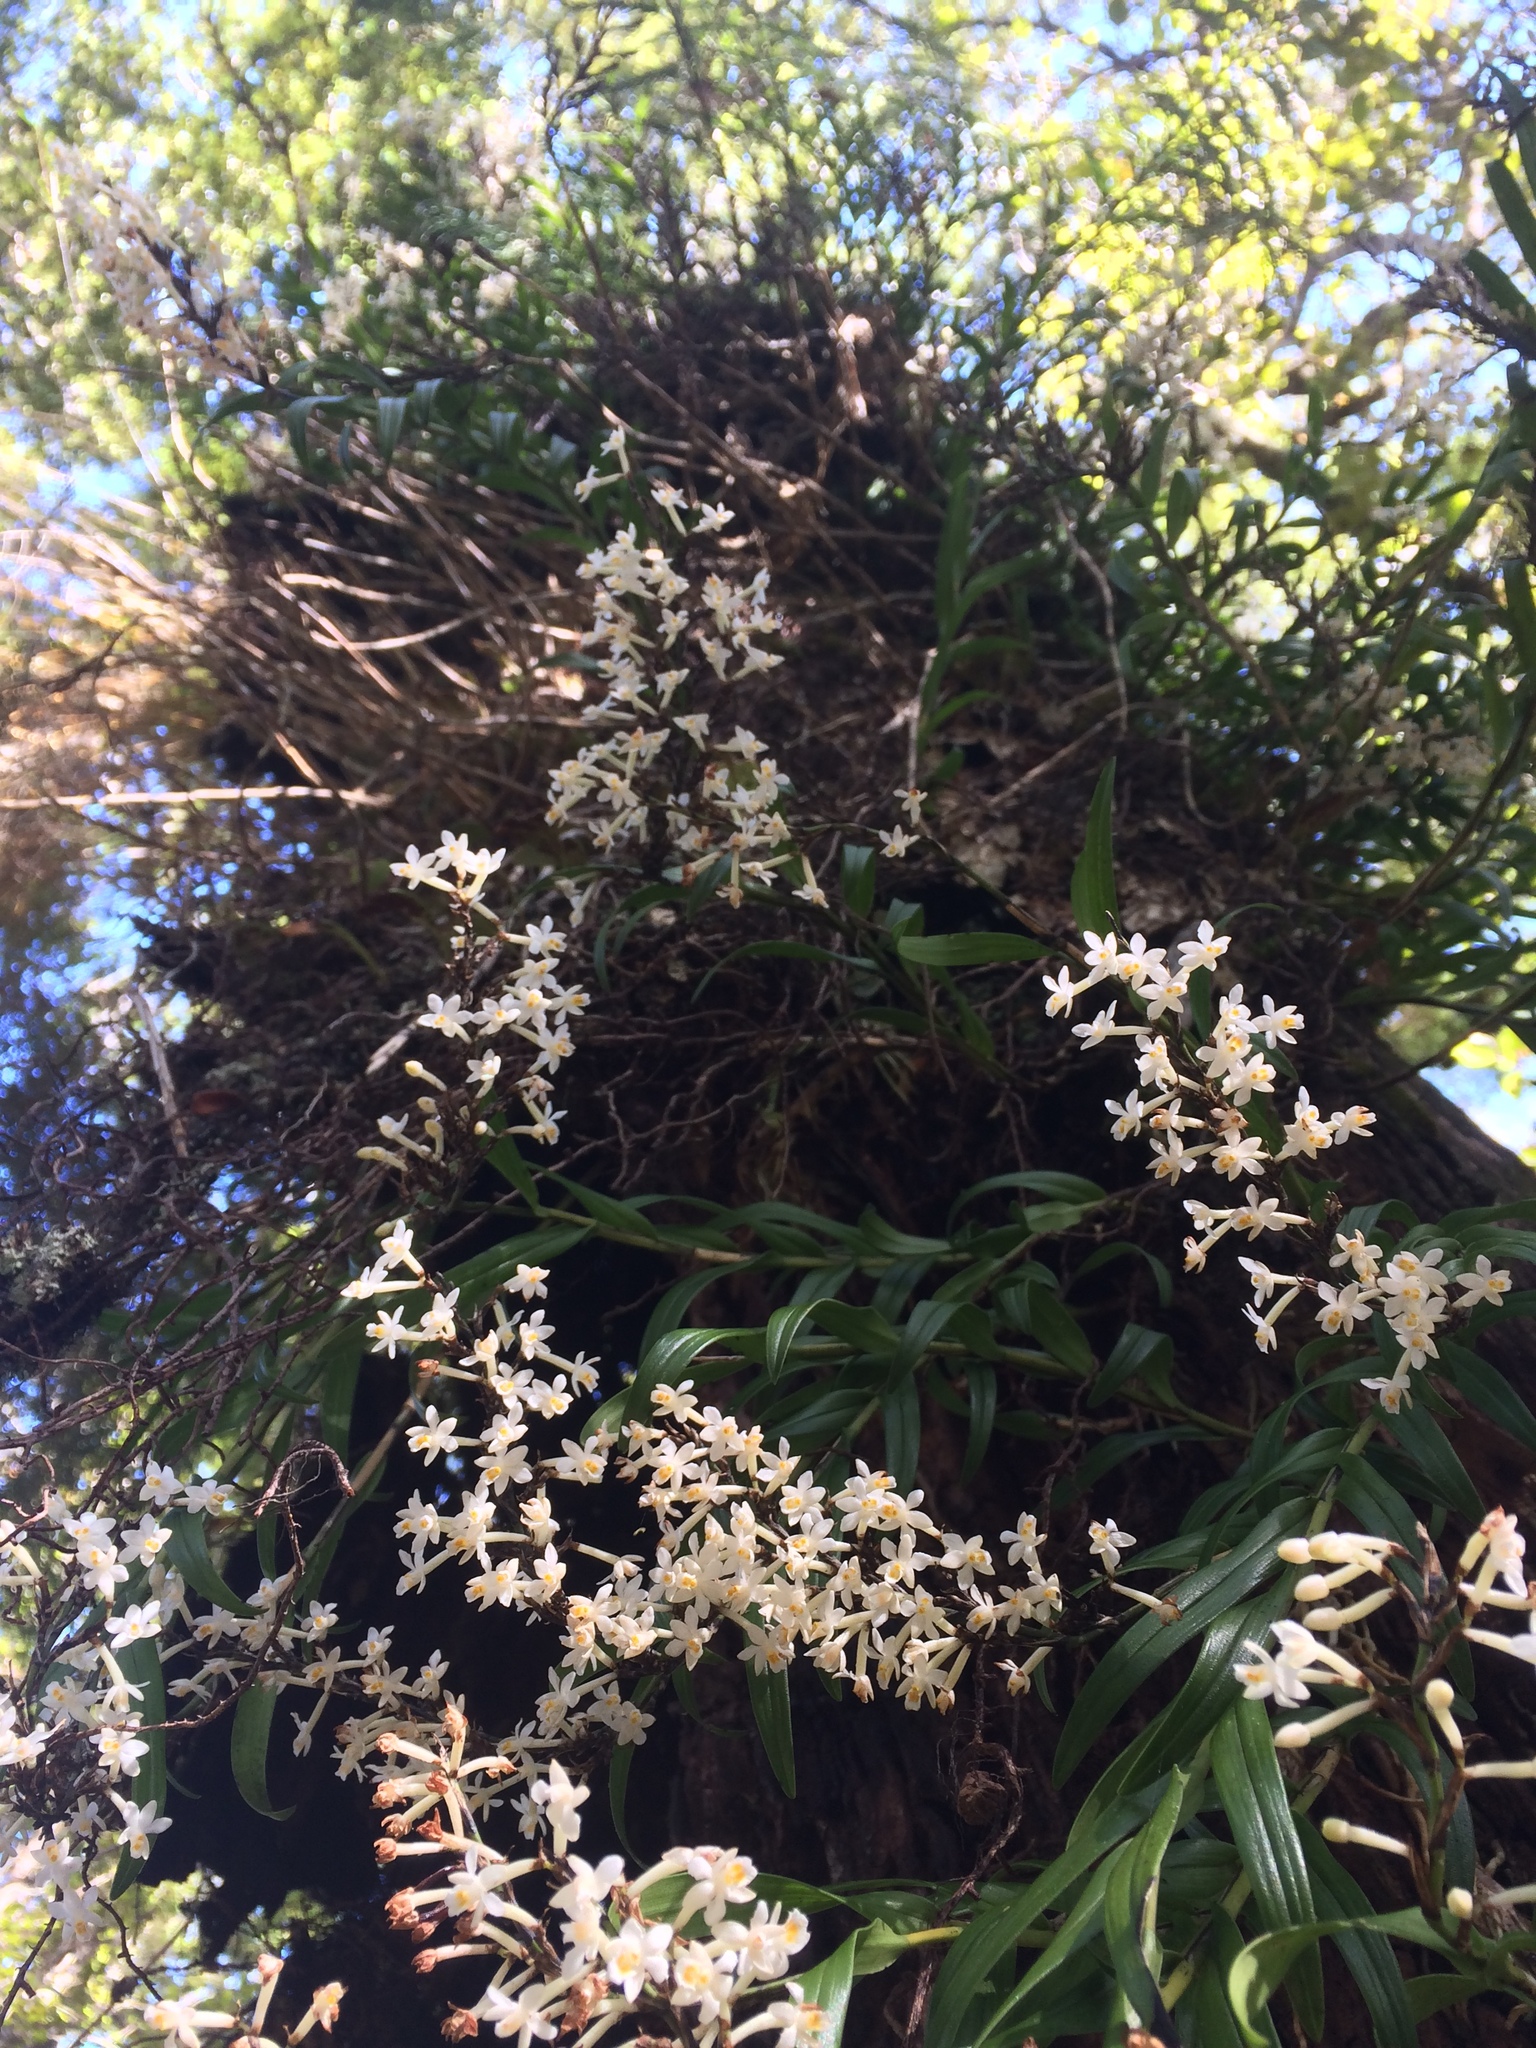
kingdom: Plantae
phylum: Tracheophyta
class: Liliopsida
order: Asparagales
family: Orchidaceae
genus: Earina
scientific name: Earina autumnalis
